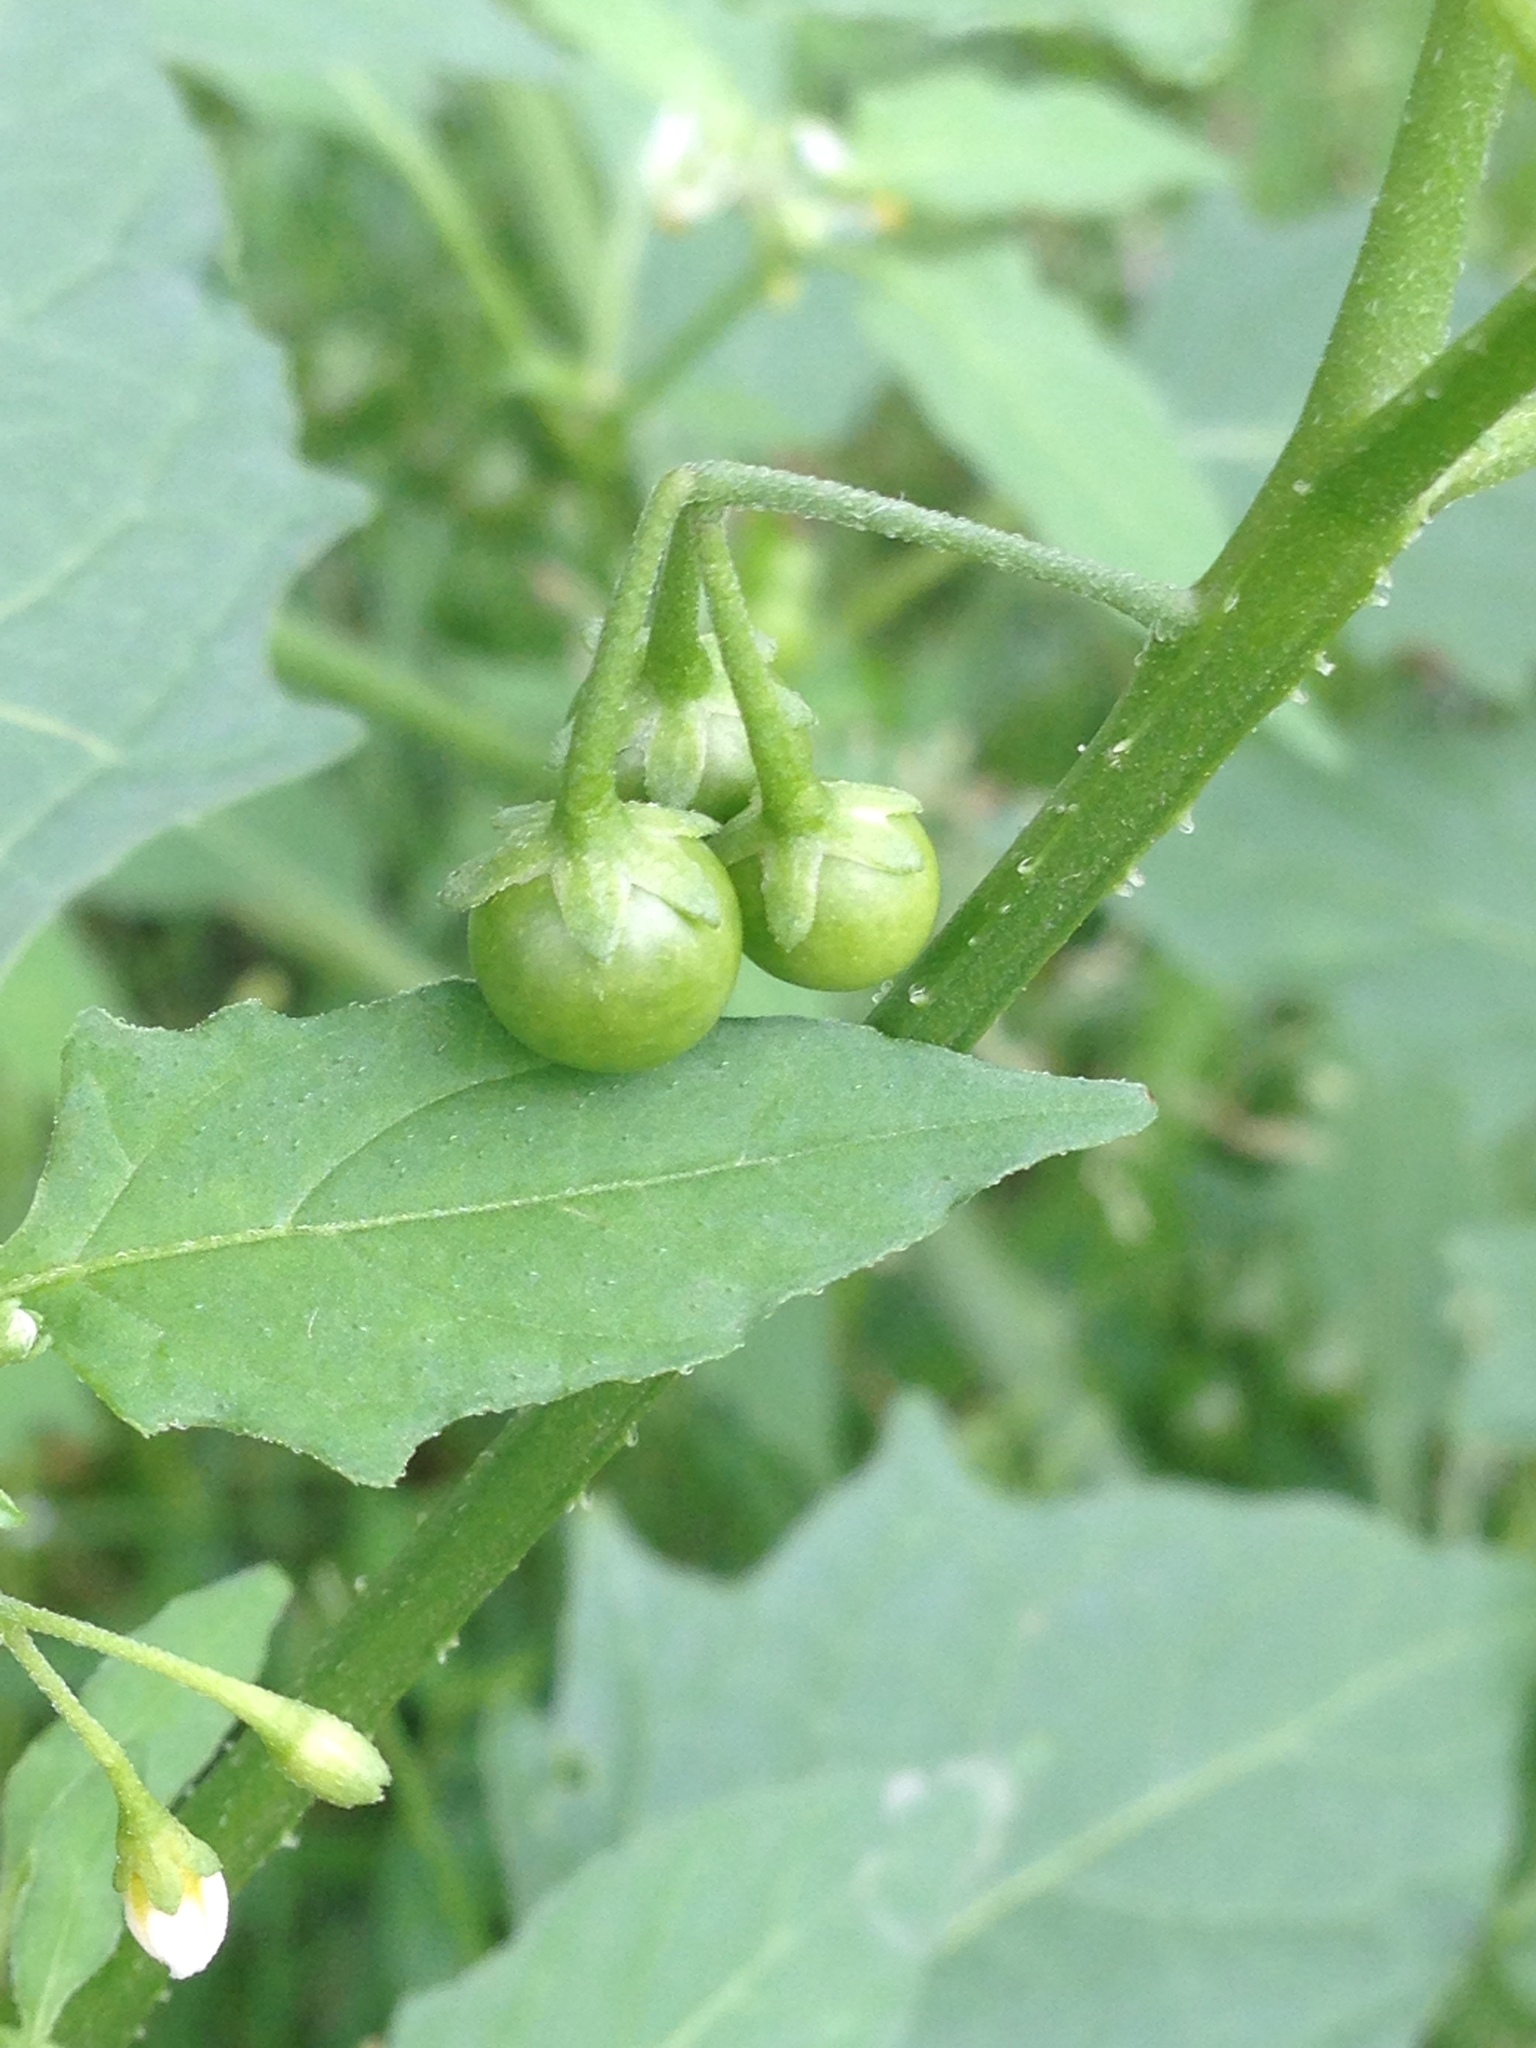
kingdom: Plantae
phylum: Tracheophyta
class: Magnoliopsida
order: Solanales
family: Solanaceae
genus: Solanum
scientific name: Solanum emulans
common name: Eastern black nightshade
